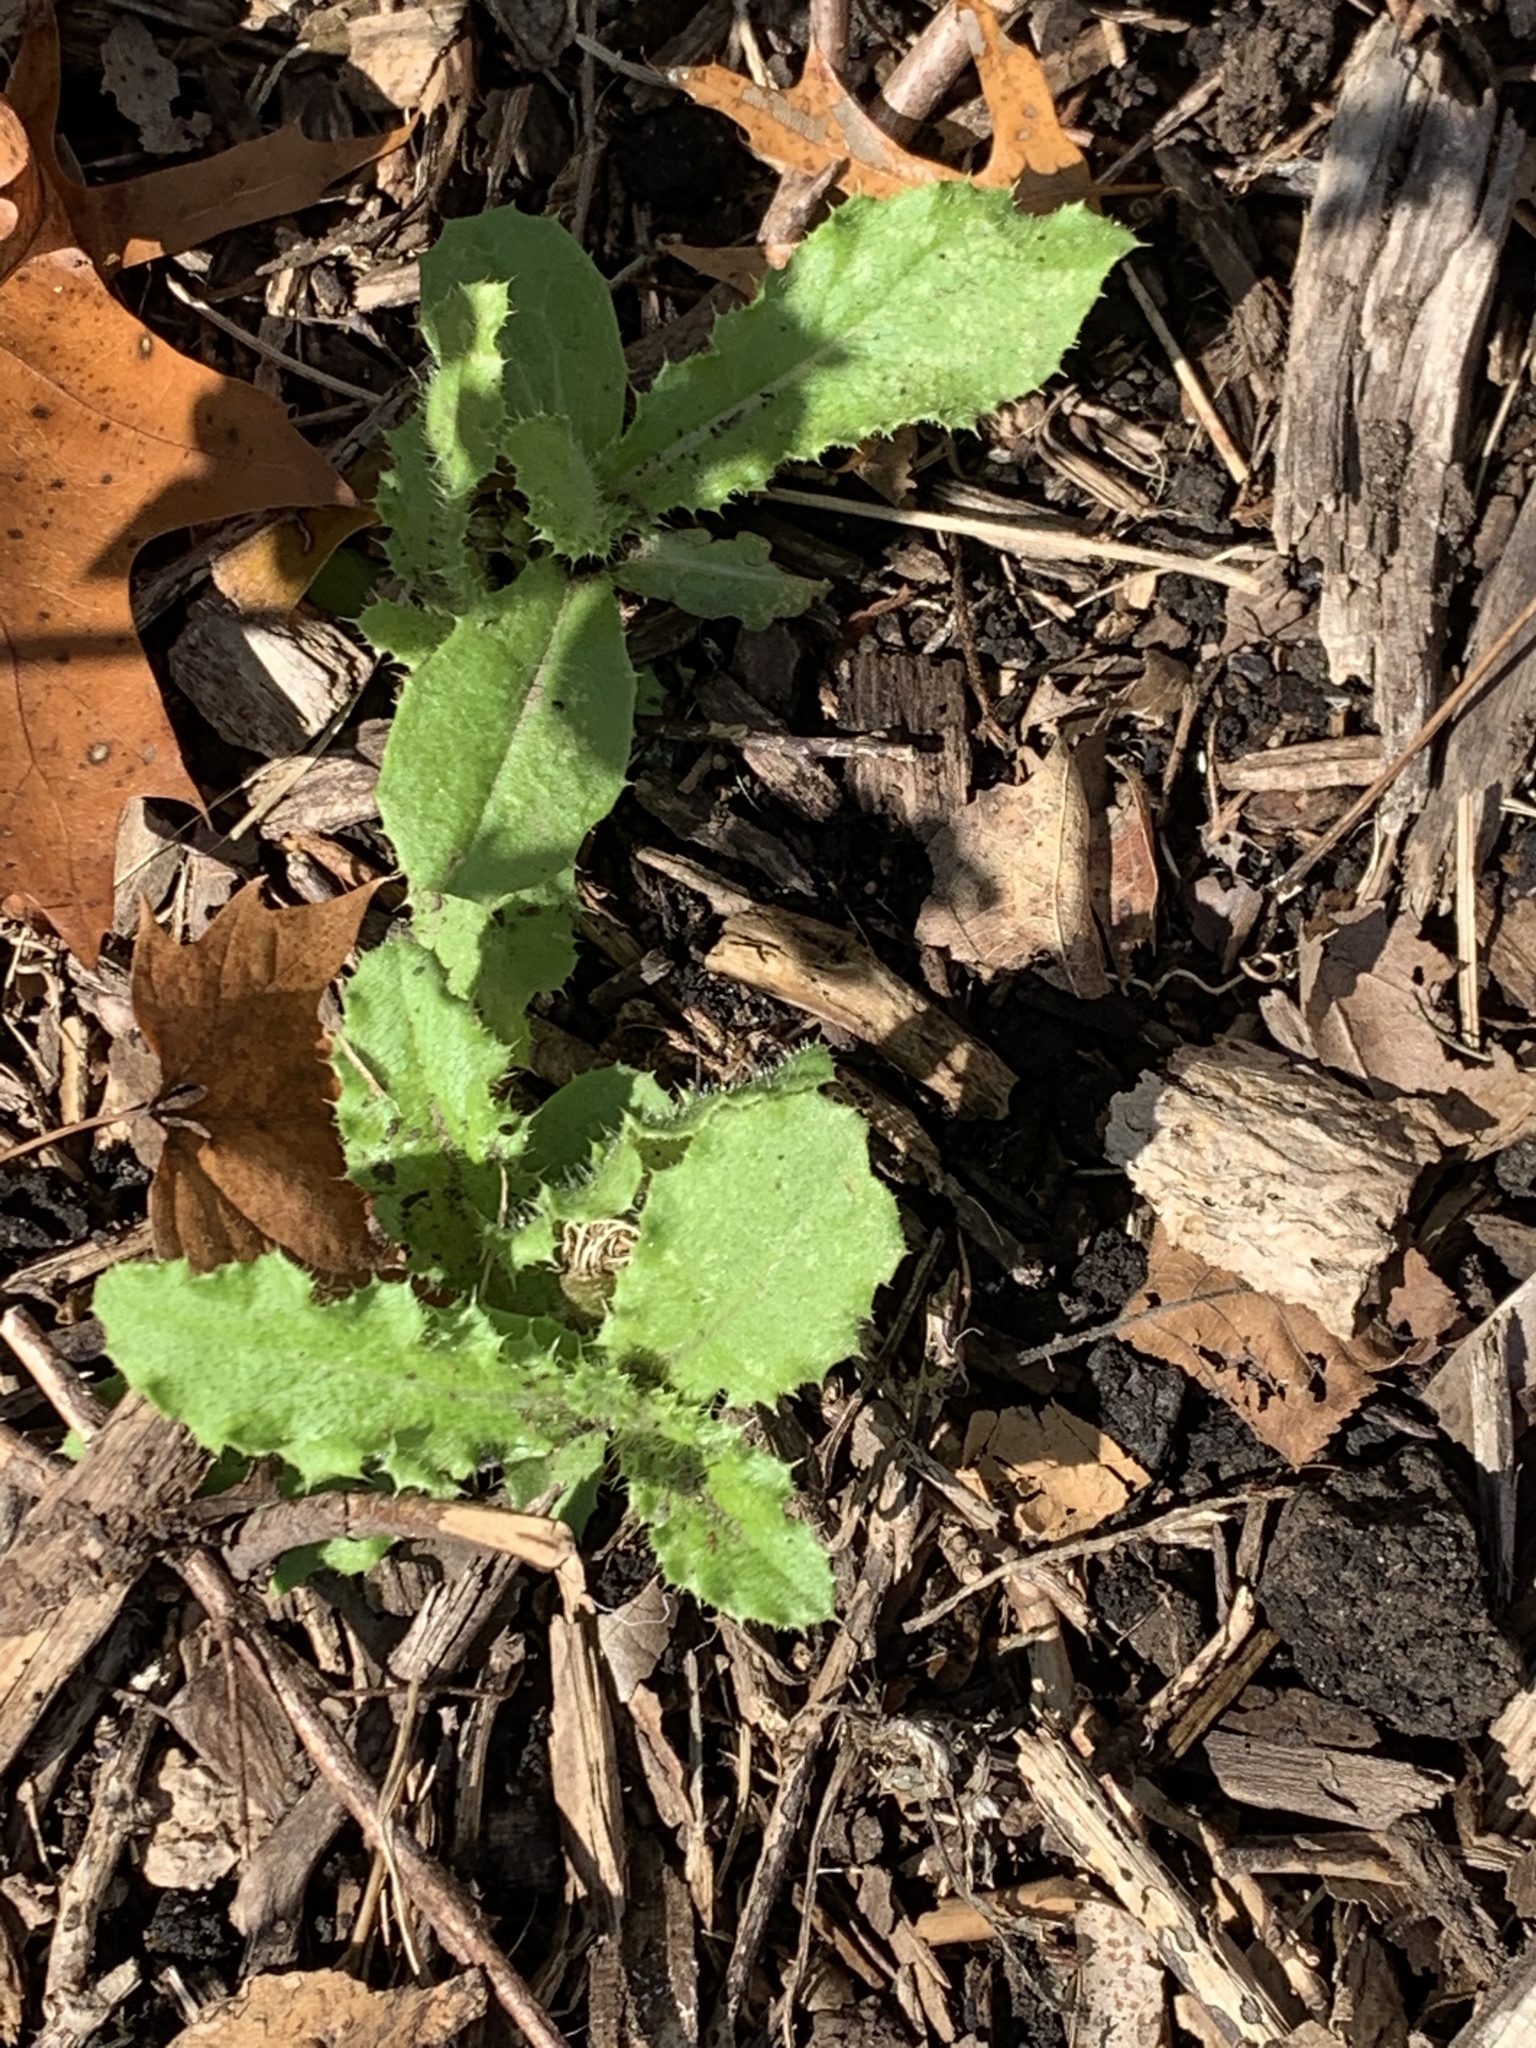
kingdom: Plantae
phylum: Tracheophyta
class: Magnoliopsida
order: Asterales
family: Asteraceae
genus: Cirsium
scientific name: Cirsium arvense
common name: Creeping thistle
